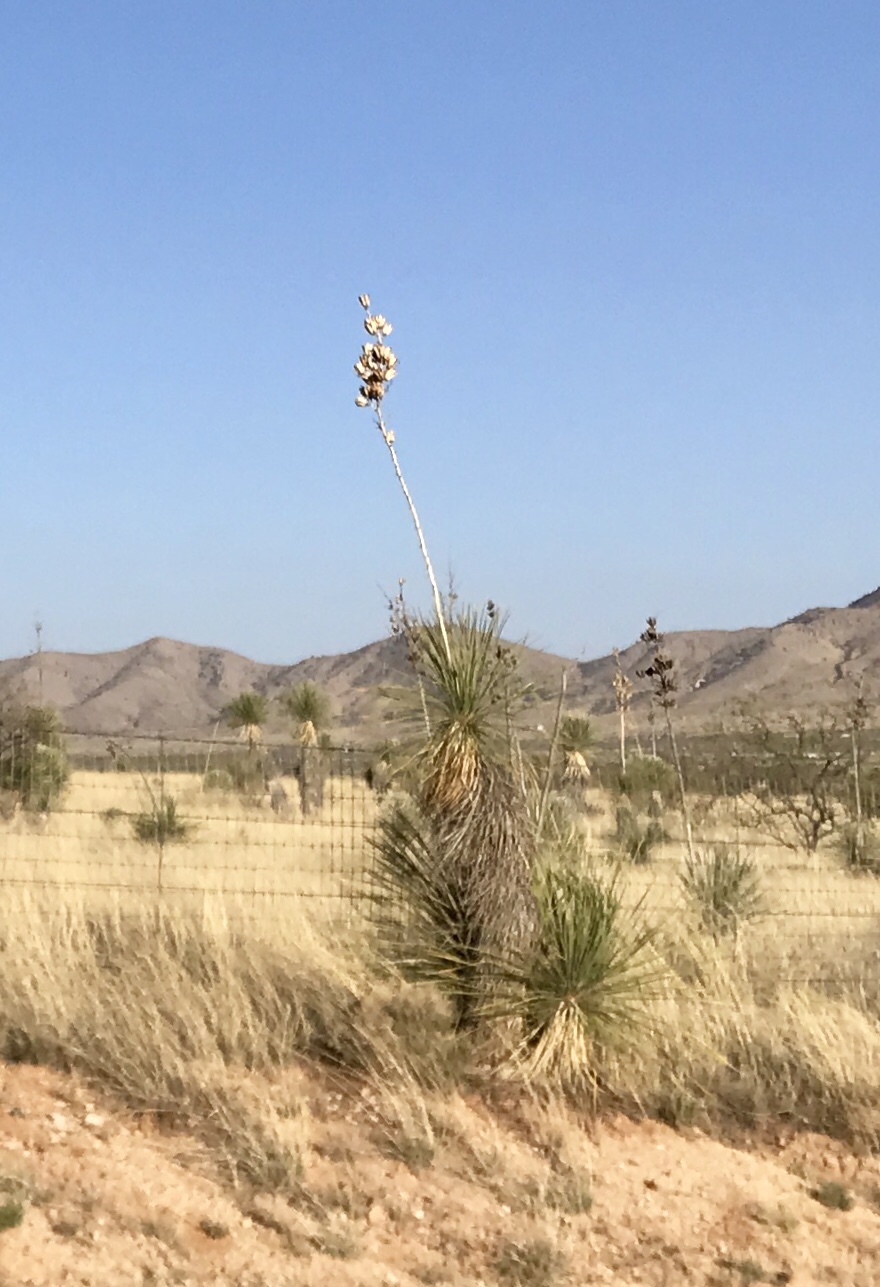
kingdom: Plantae
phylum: Tracheophyta
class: Liliopsida
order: Asparagales
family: Asparagaceae
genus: Yucca
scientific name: Yucca elata
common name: Palmella
